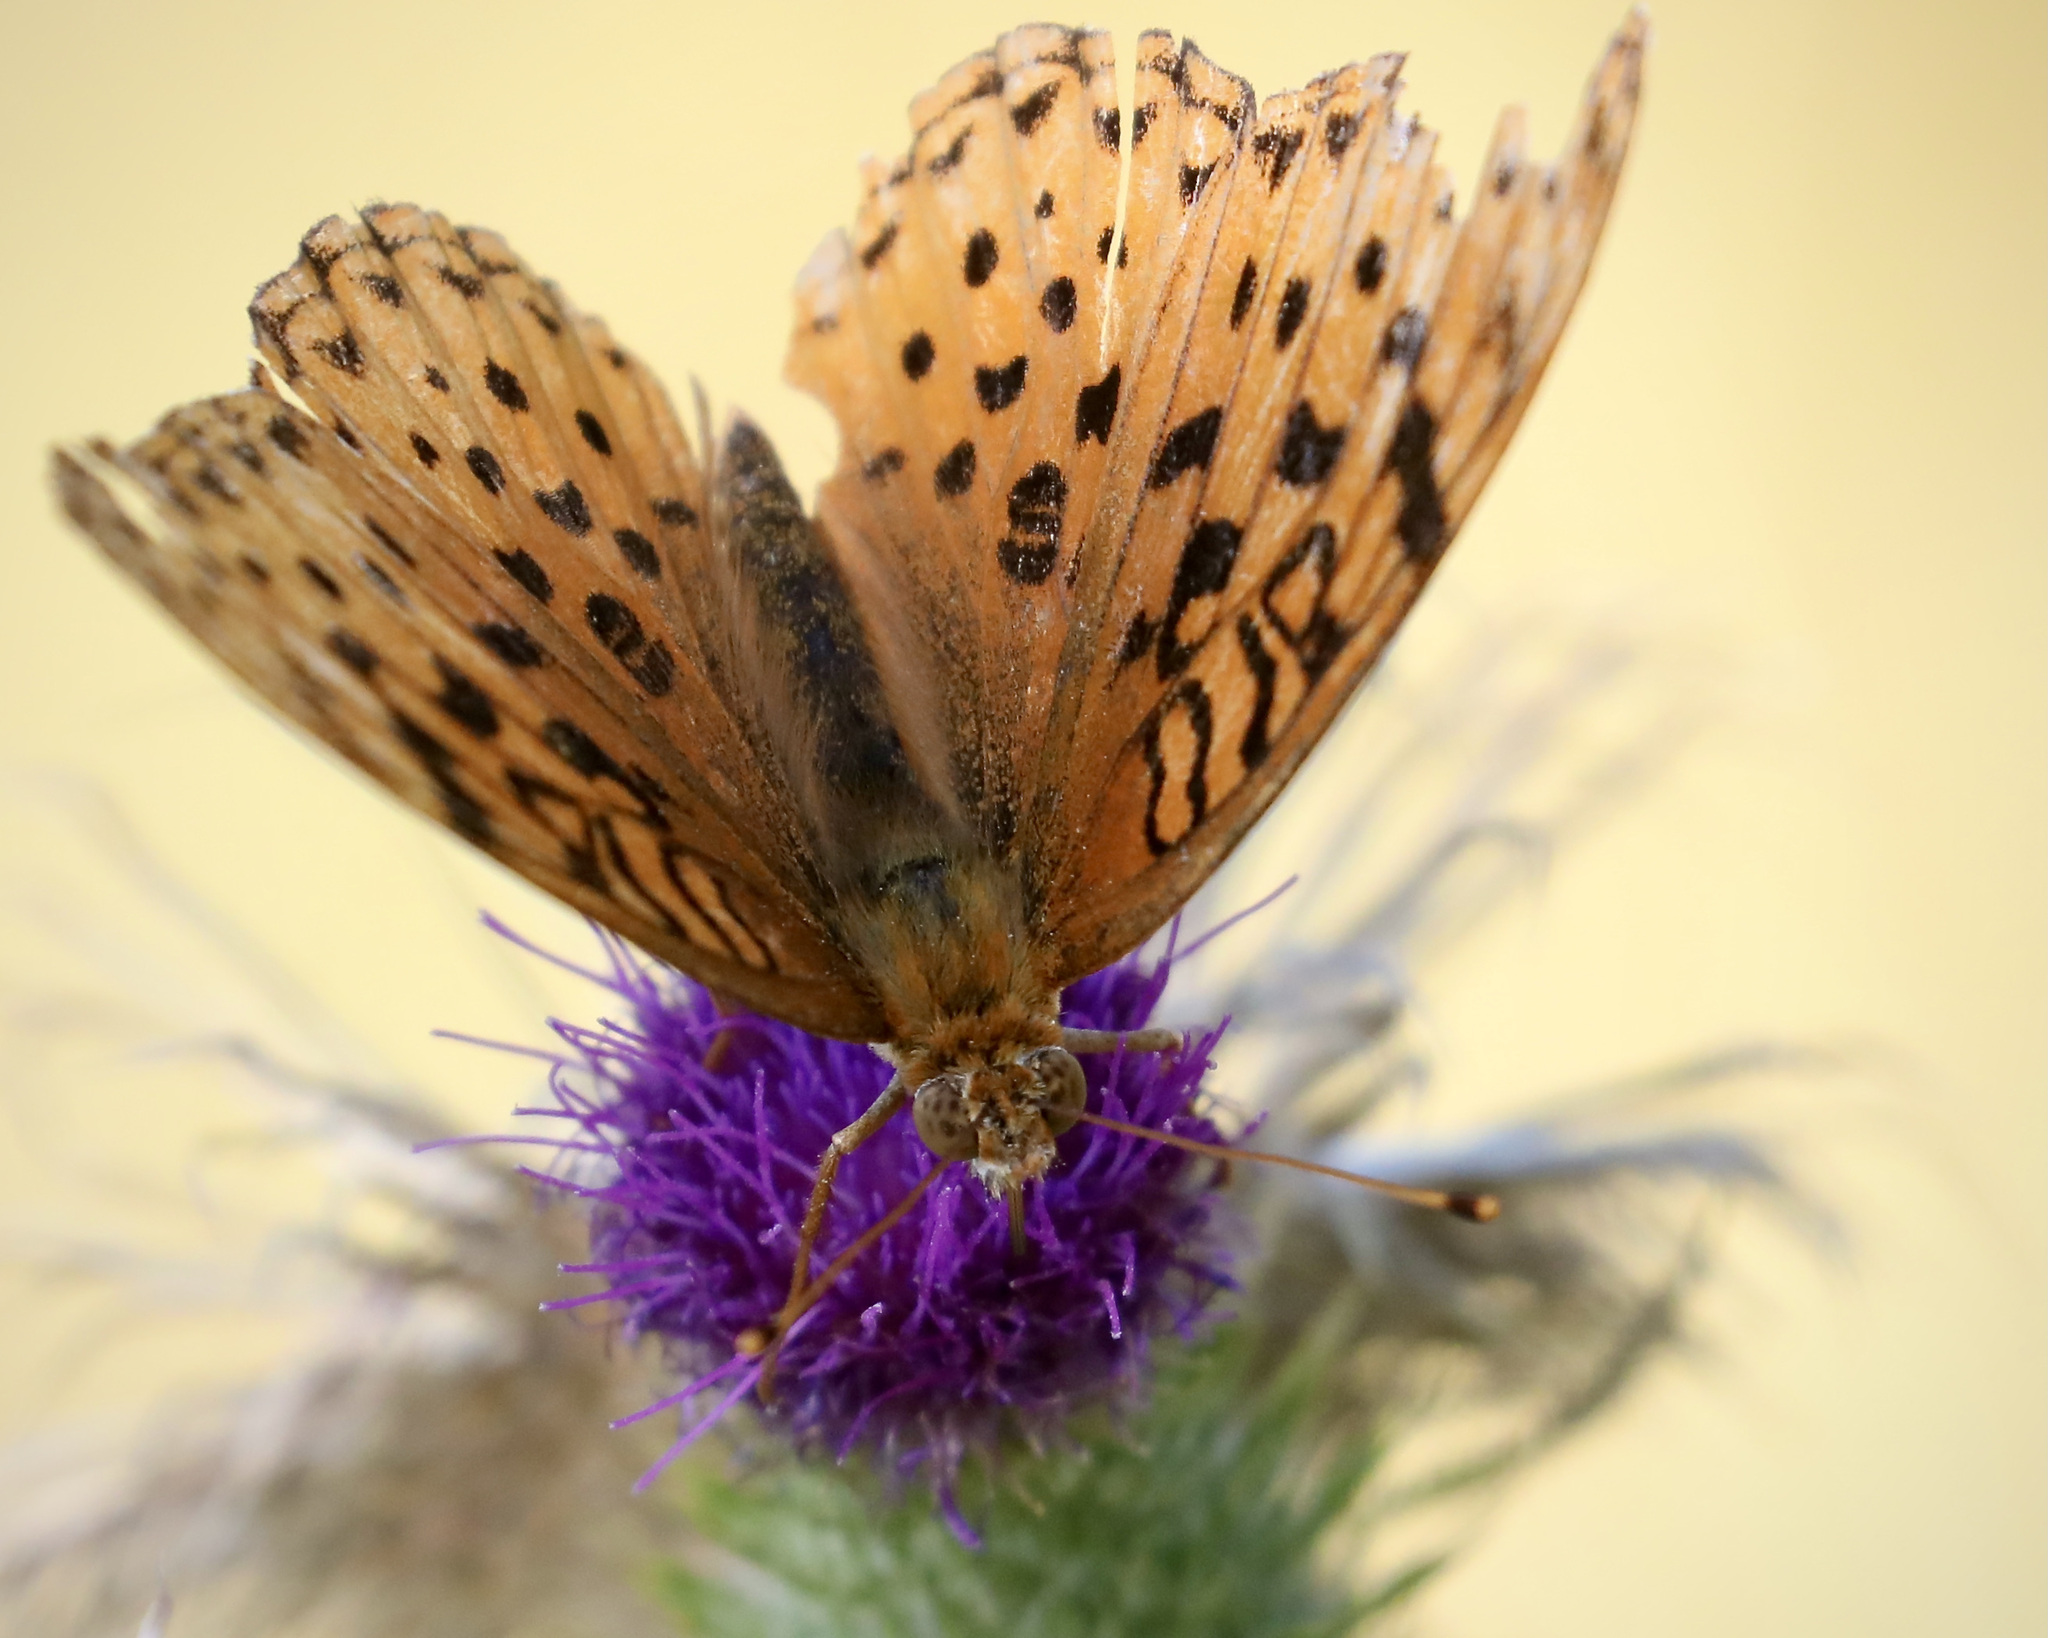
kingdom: Animalia
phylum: Arthropoda
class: Insecta
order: Lepidoptera
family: Nymphalidae
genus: Speyeria
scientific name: Speyeria aphrodite
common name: Aphrodite friitllary
